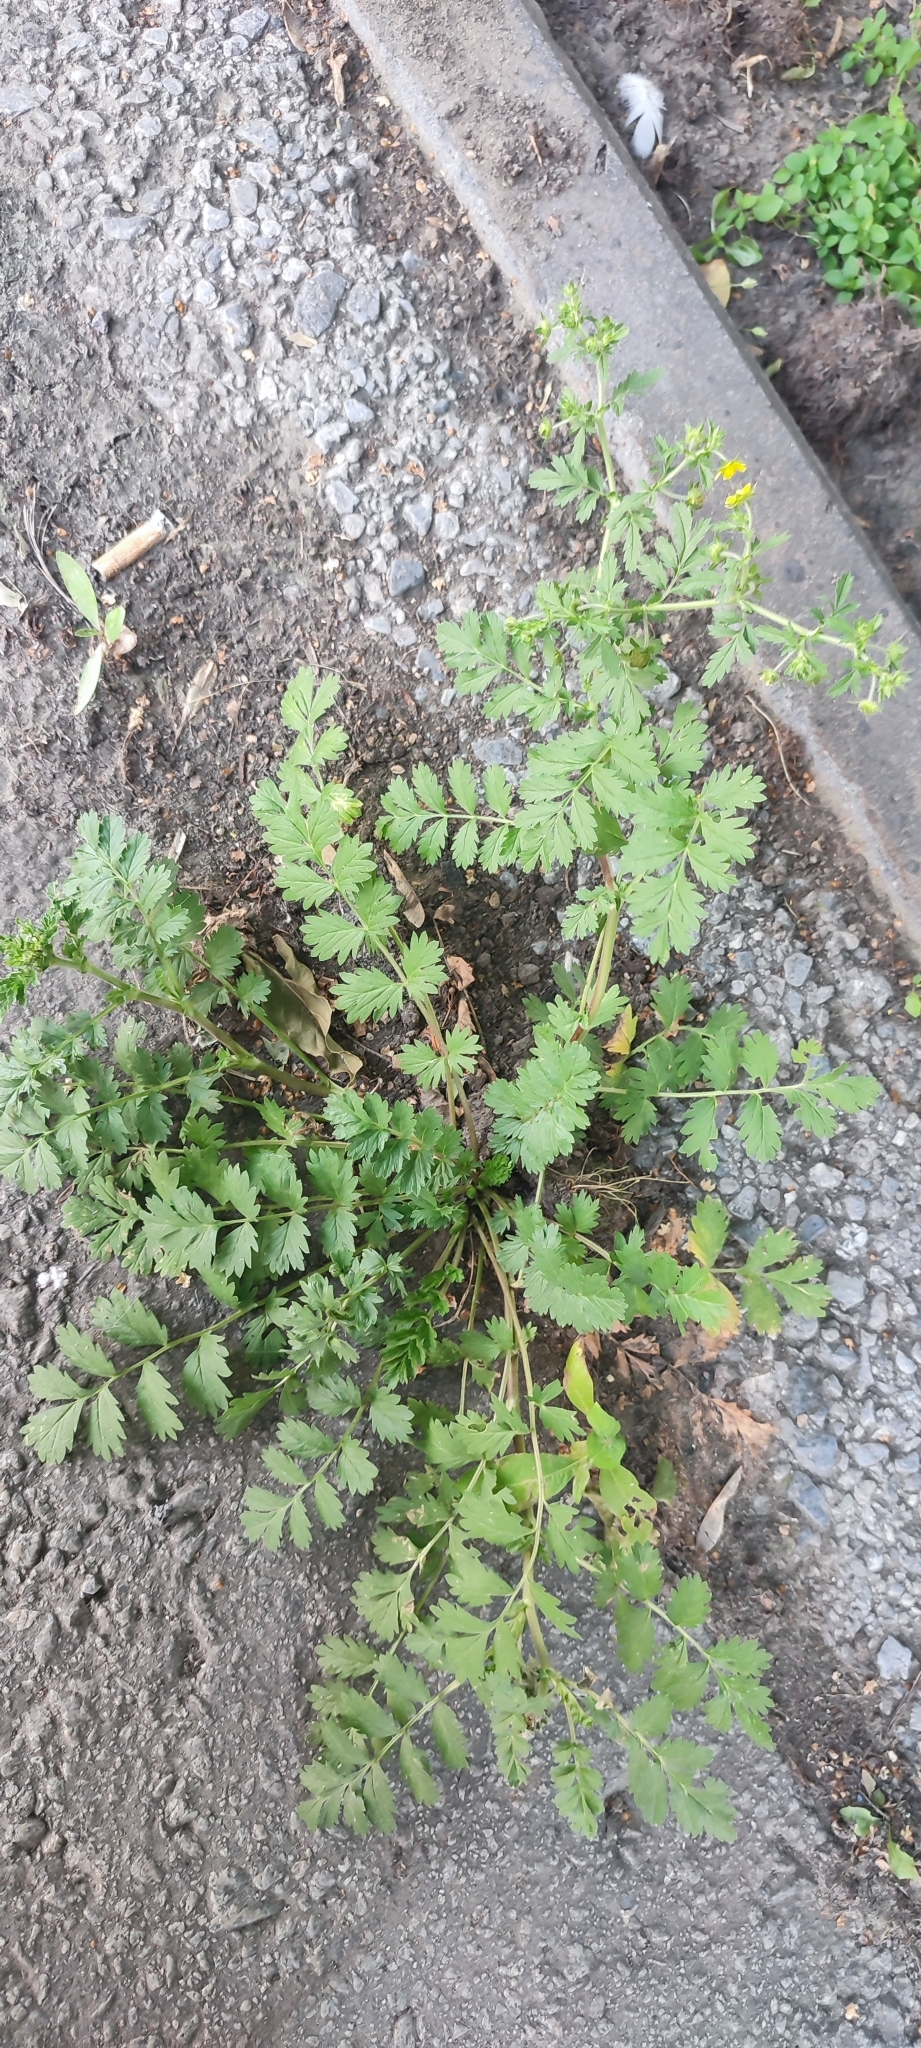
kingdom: Plantae
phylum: Tracheophyta
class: Magnoliopsida
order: Rosales
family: Rosaceae
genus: Potentilla
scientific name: Potentilla supina
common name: Prostrate cinquefoil
